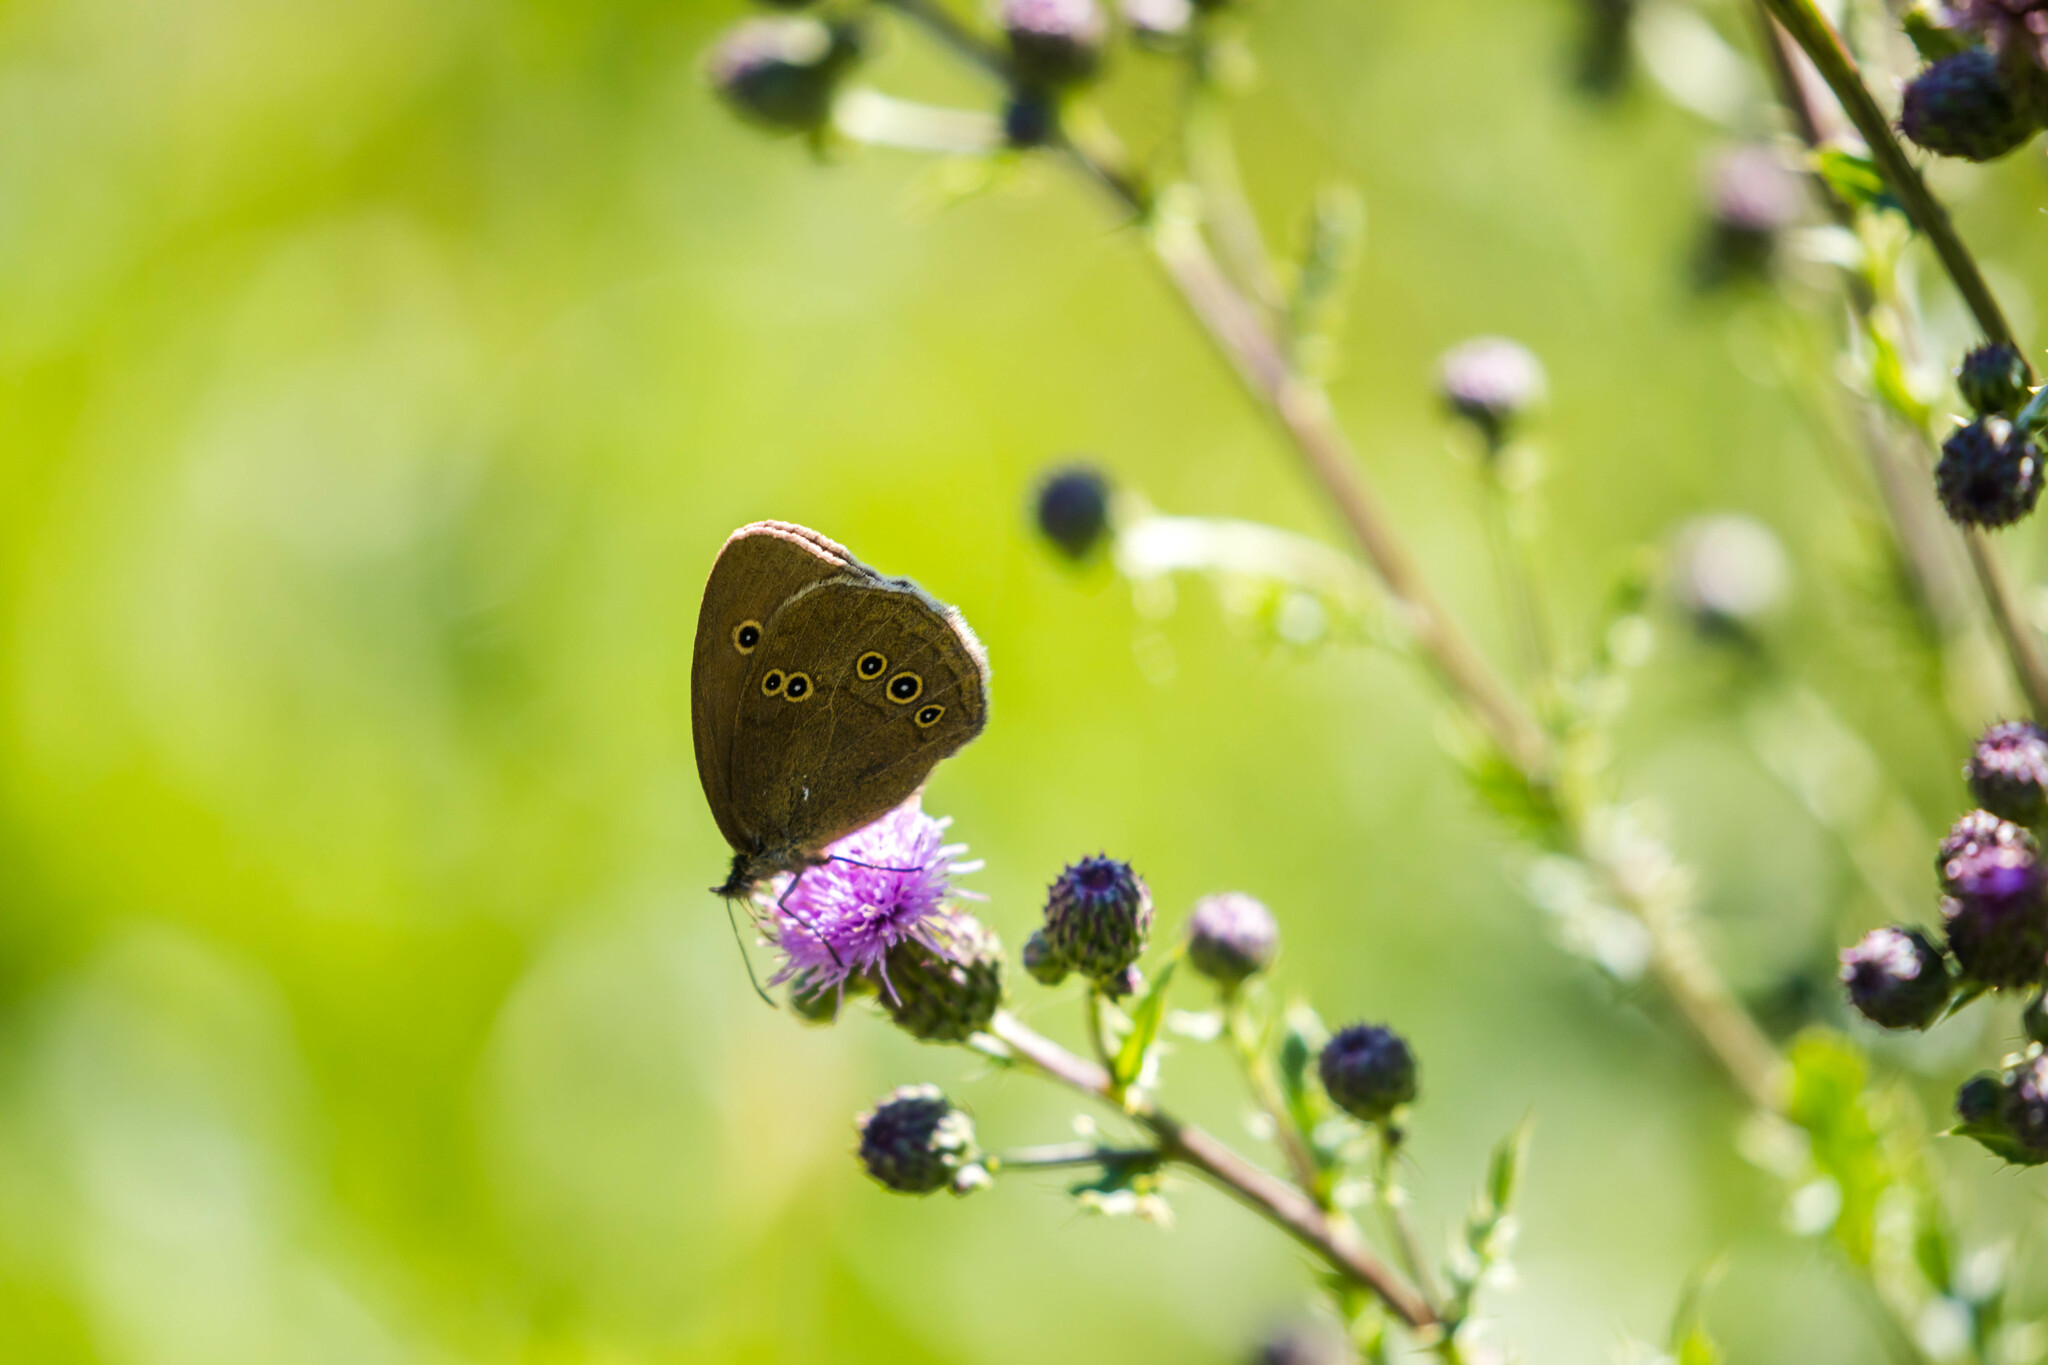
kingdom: Animalia
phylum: Arthropoda
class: Insecta
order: Lepidoptera
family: Nymphalidae
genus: Aphantopus
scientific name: Aphantopus hyperantus
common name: Ringlet
